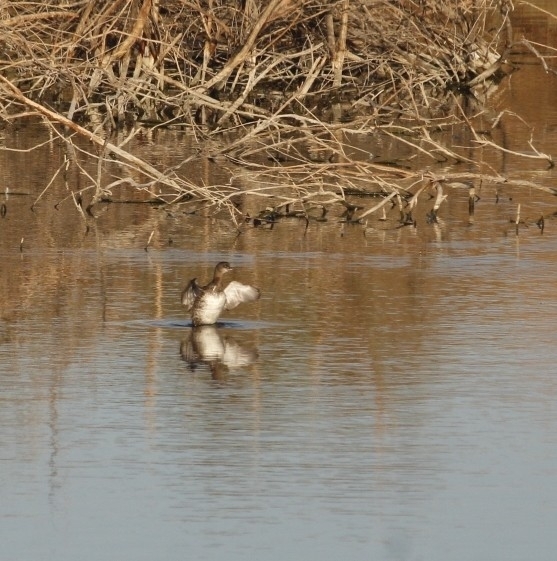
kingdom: Animalia
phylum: Chordata
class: Aves
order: Podicipediformes
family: Podicipedidae
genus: Podilymbus
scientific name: Podilymbus podiceps
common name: Pied-billed grebe
